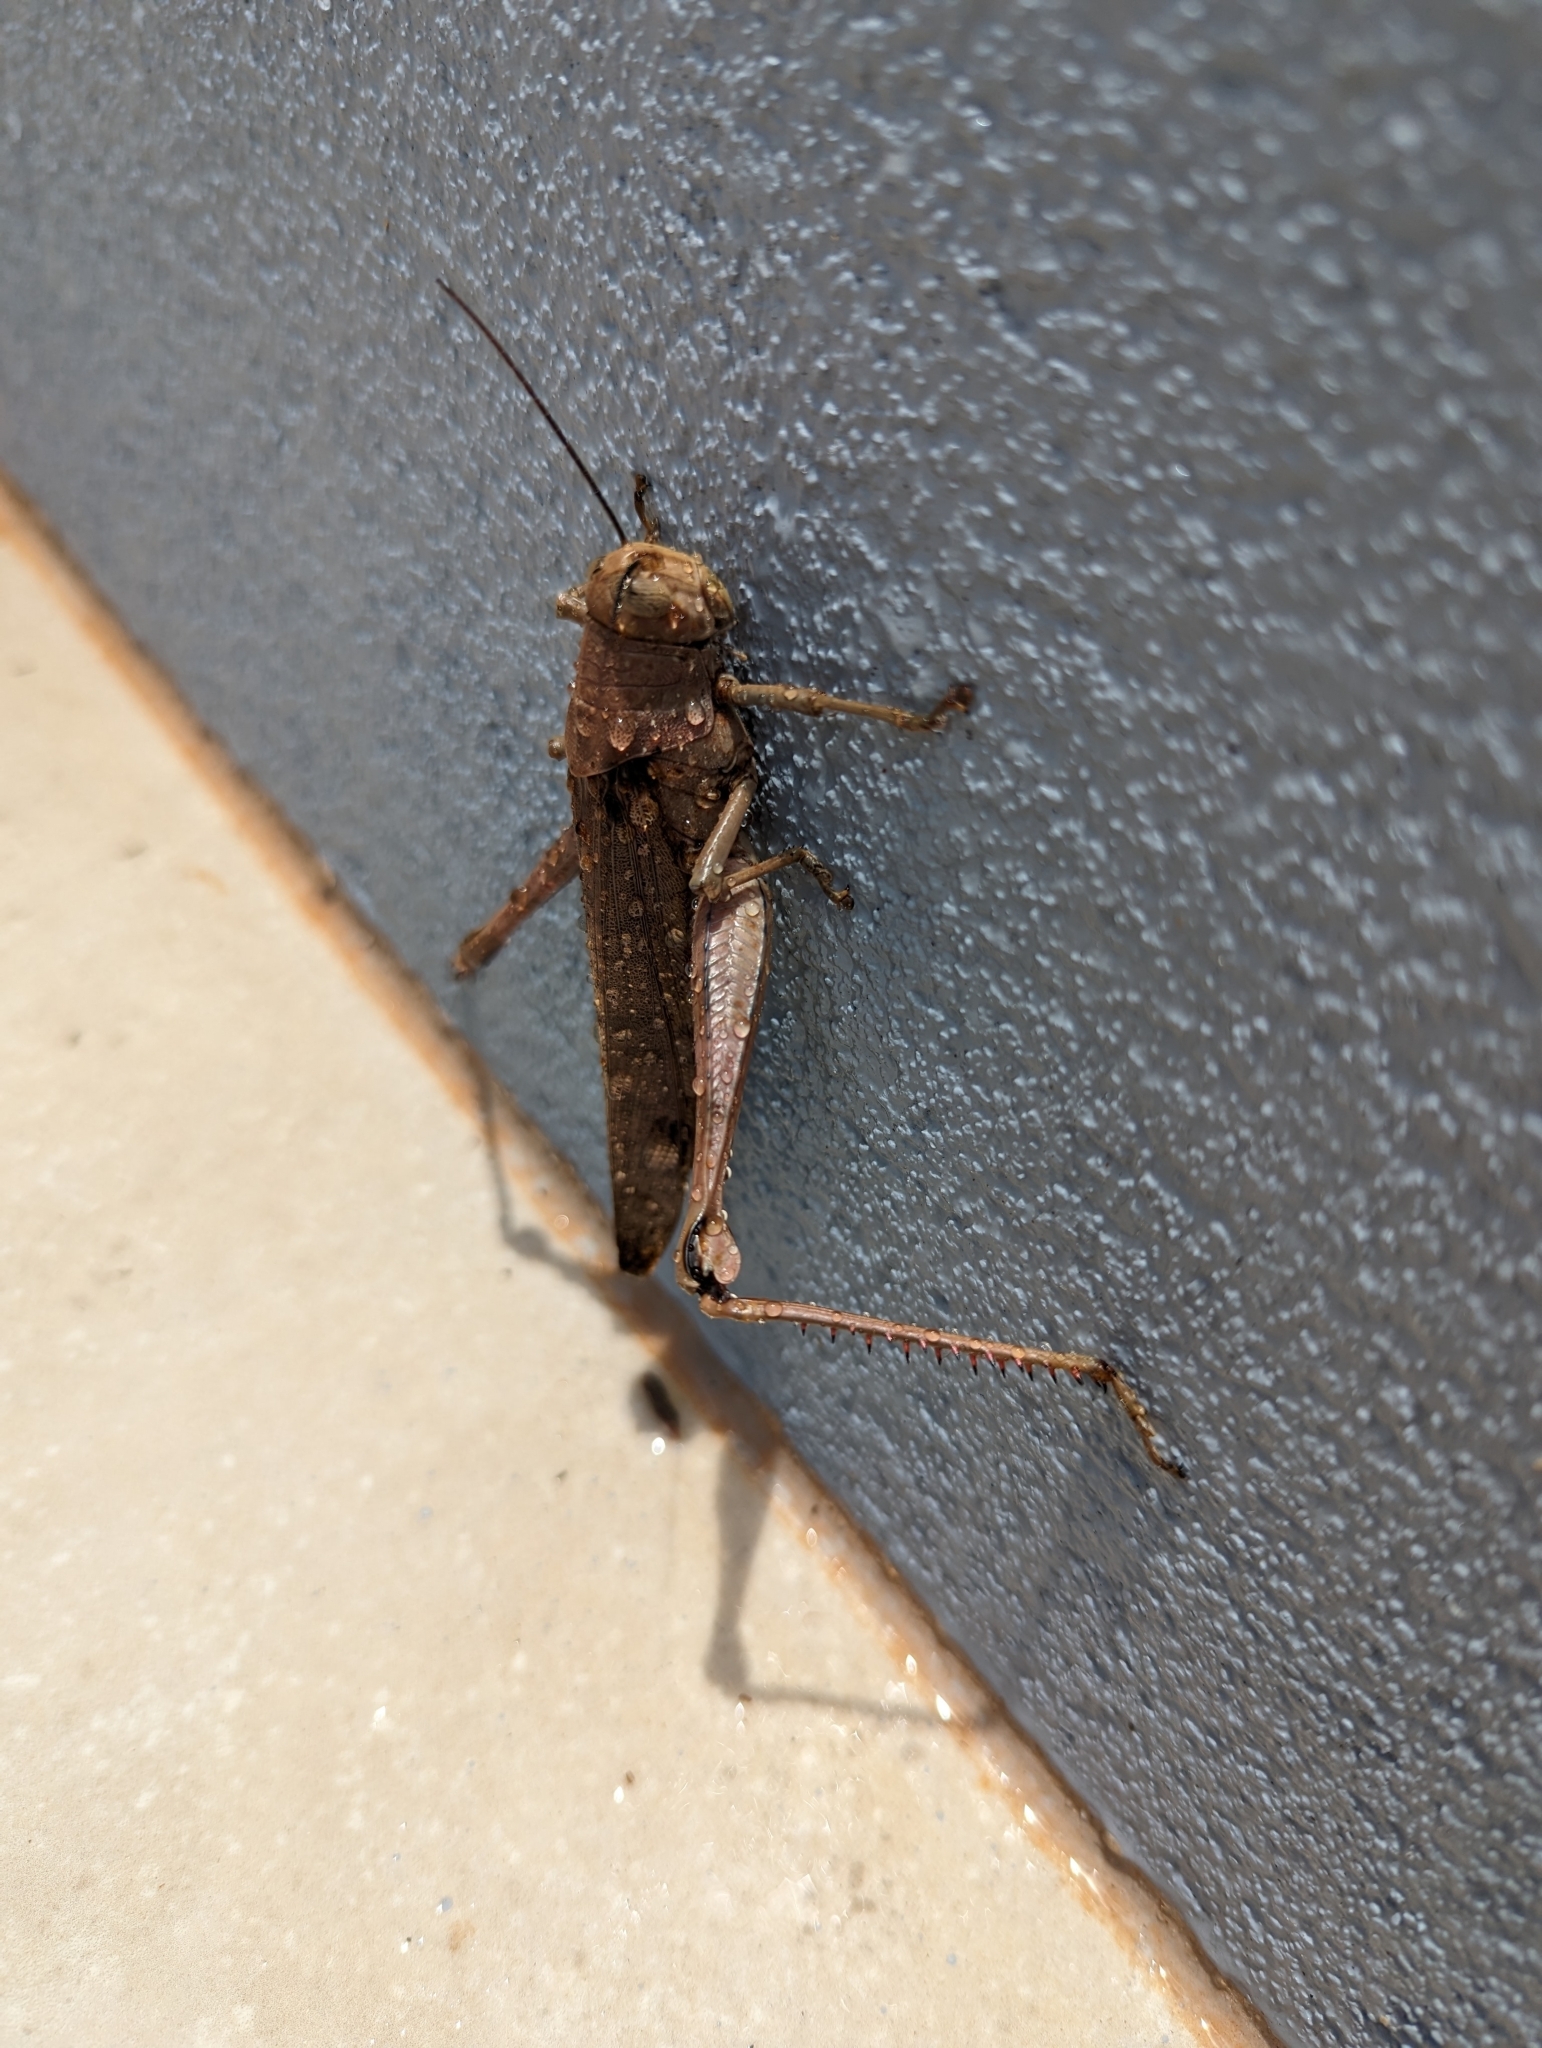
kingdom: Animalia
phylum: Arthropoda
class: Insecta
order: Orthoptera
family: Acrididae
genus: Valanga
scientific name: Valanga irregularis
